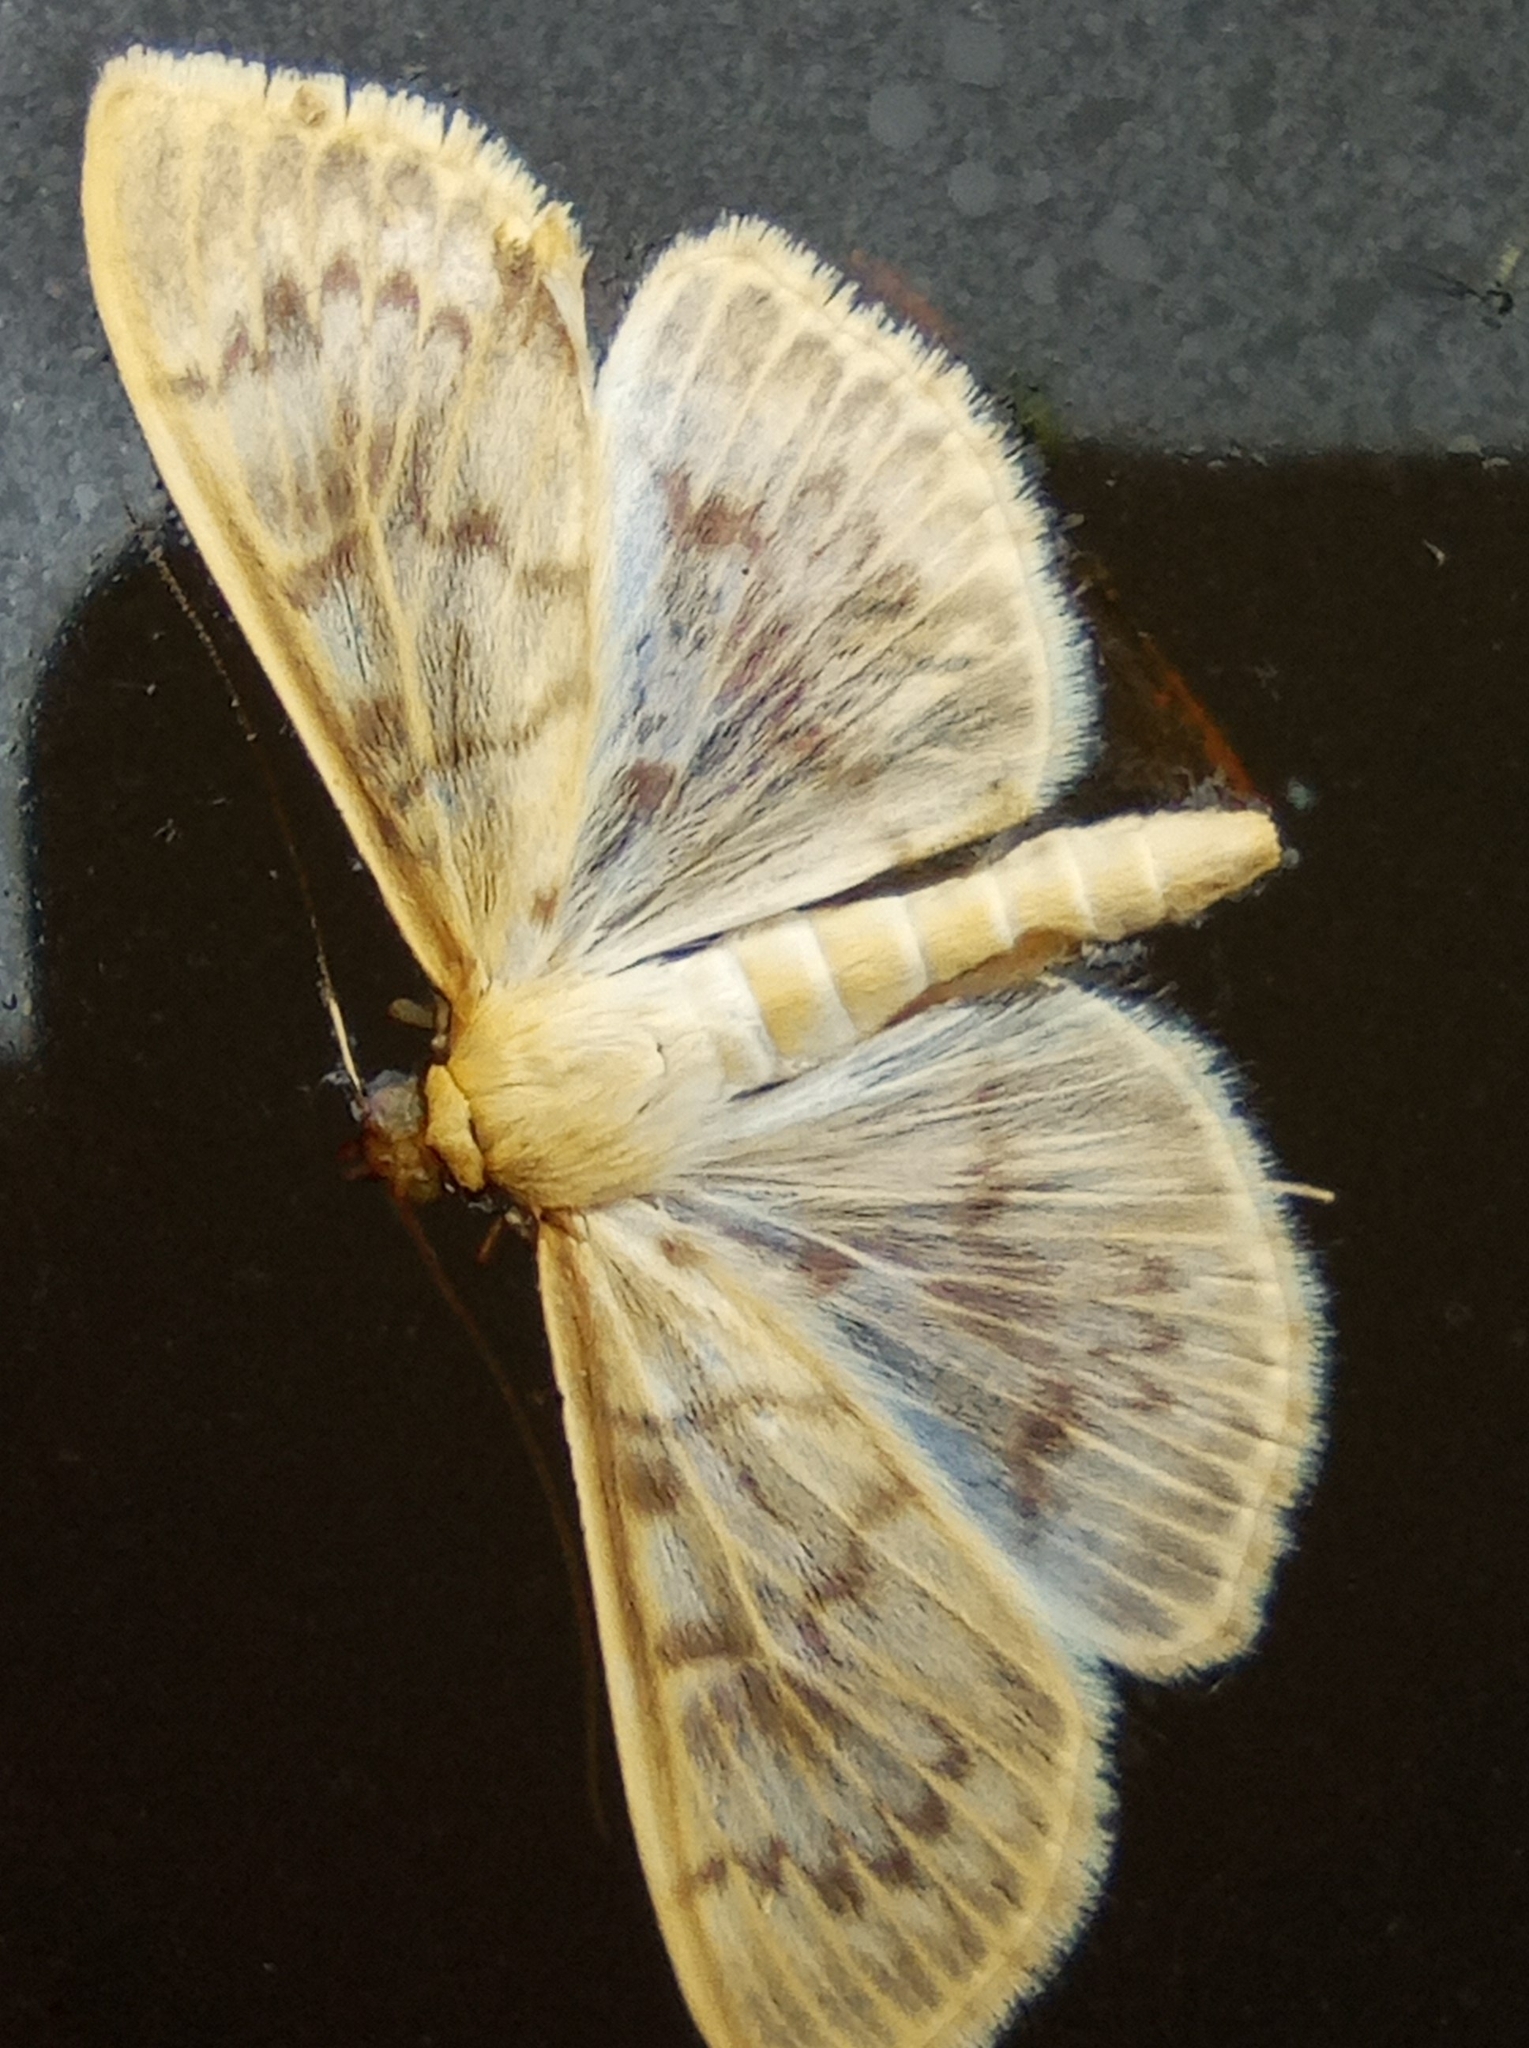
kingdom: Animalia
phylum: Arthropoda
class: Insecta
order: Lepidoptera
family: Crambidae
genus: Patania
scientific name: Patania ruralis
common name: Mother of pearl
